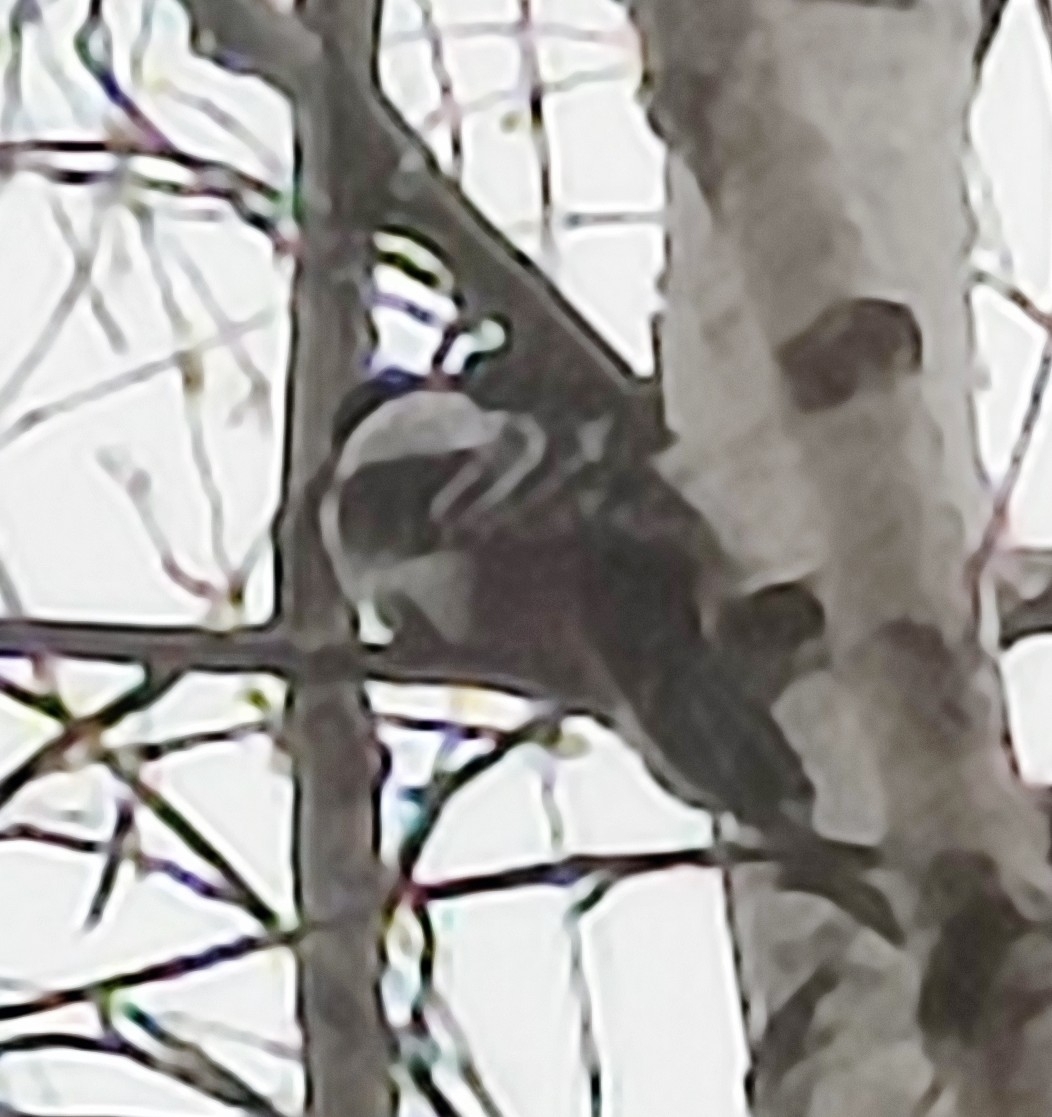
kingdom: Animalia
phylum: Chordata
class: Aves
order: Piciformes
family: Picidae
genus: Dendrocopos
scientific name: Dendrocopos major
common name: Great spotted woodpecker
